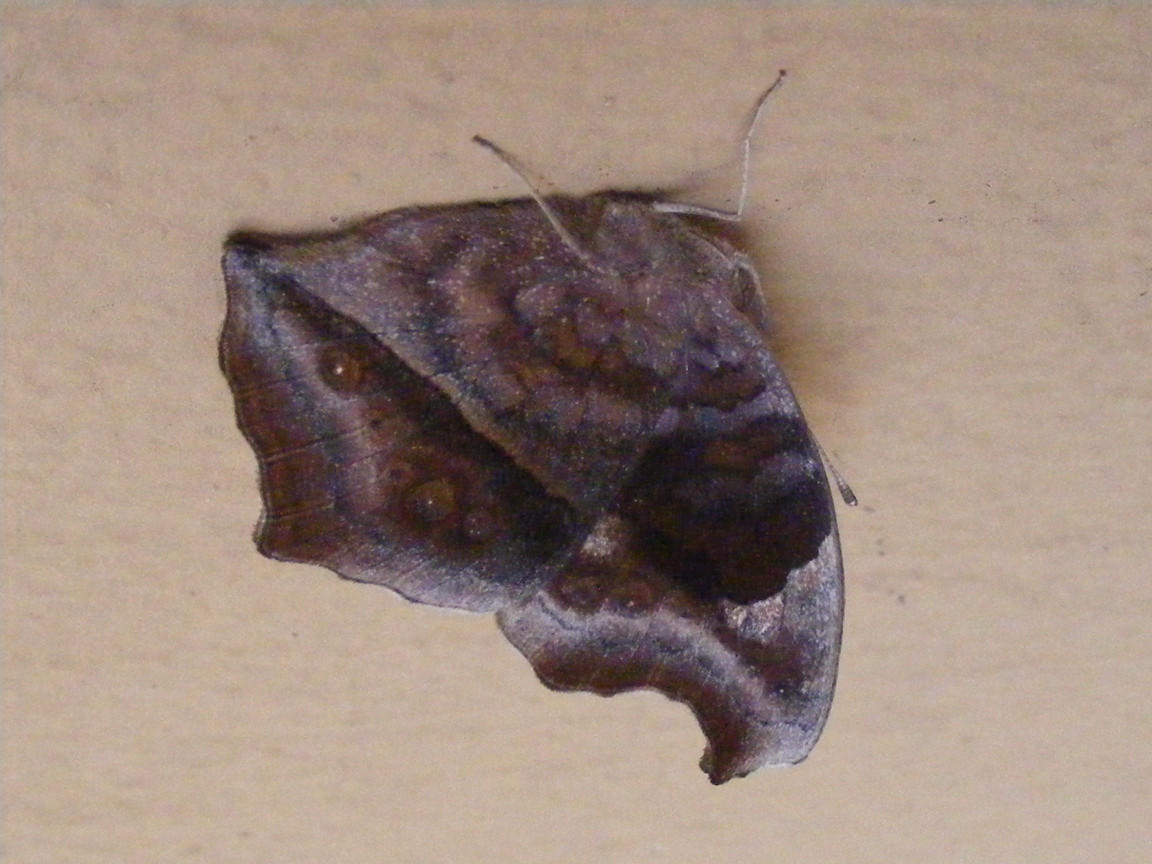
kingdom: Animalia
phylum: Arthropoda
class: Insecta
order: Lepidoptera
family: Nymphalidae
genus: Junonia
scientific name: Junonia natalica
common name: Brown pansy
